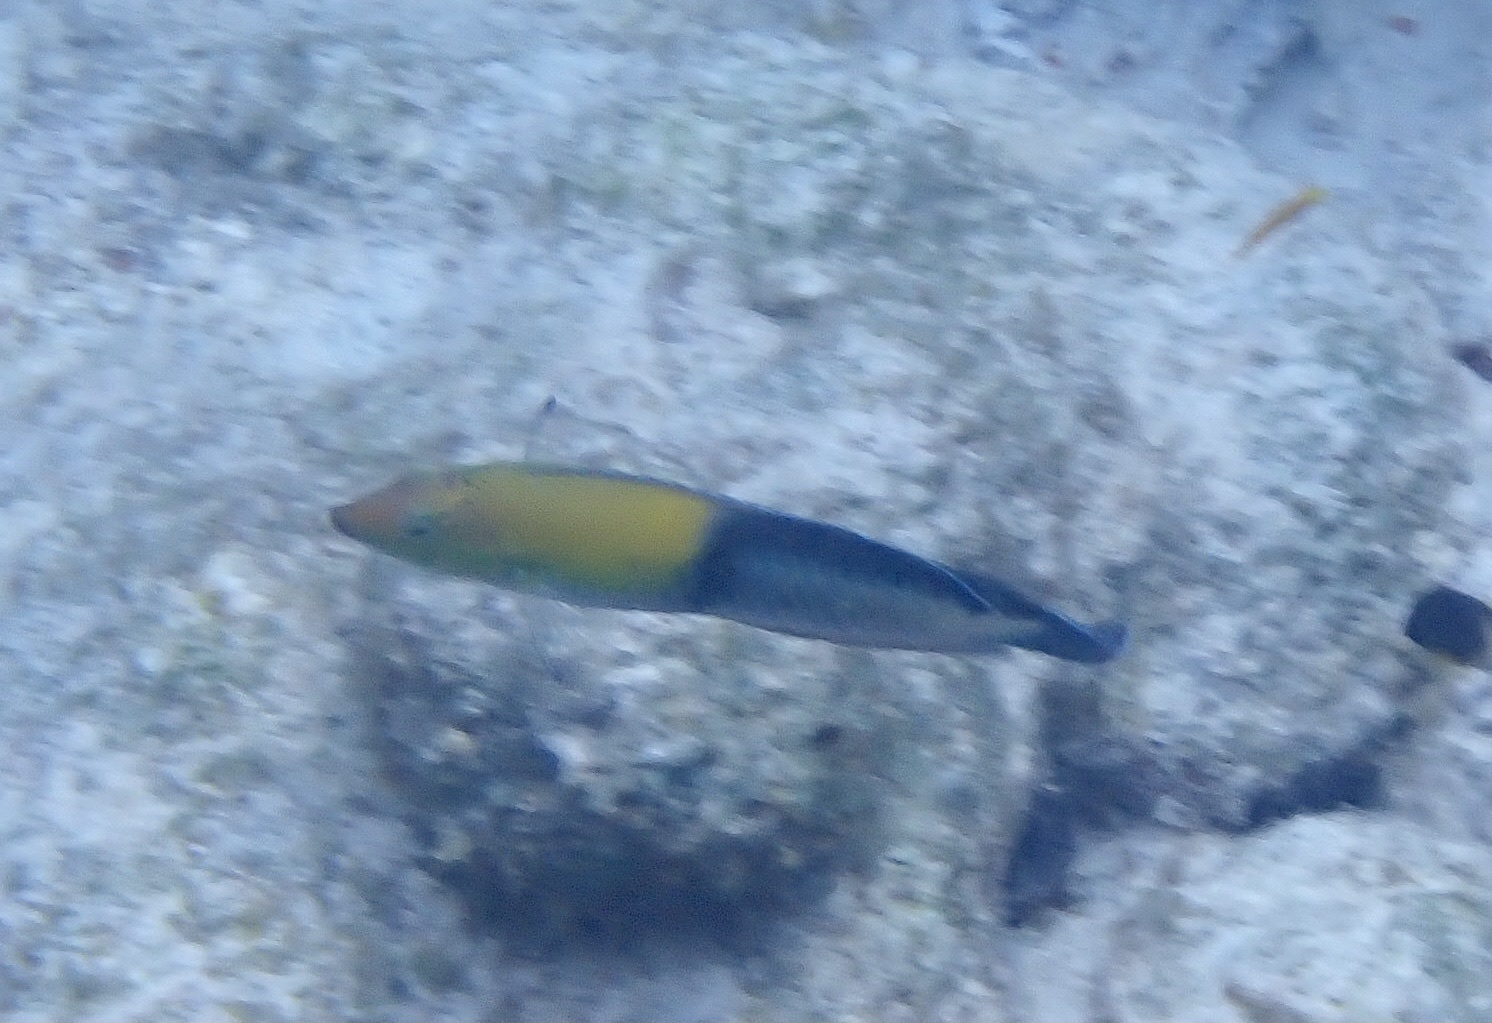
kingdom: Animalia
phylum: Chordata
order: Perciformes
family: Labridae
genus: Halichoeres
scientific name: Halichoeres garnoti
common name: Yellowhead wrasse
